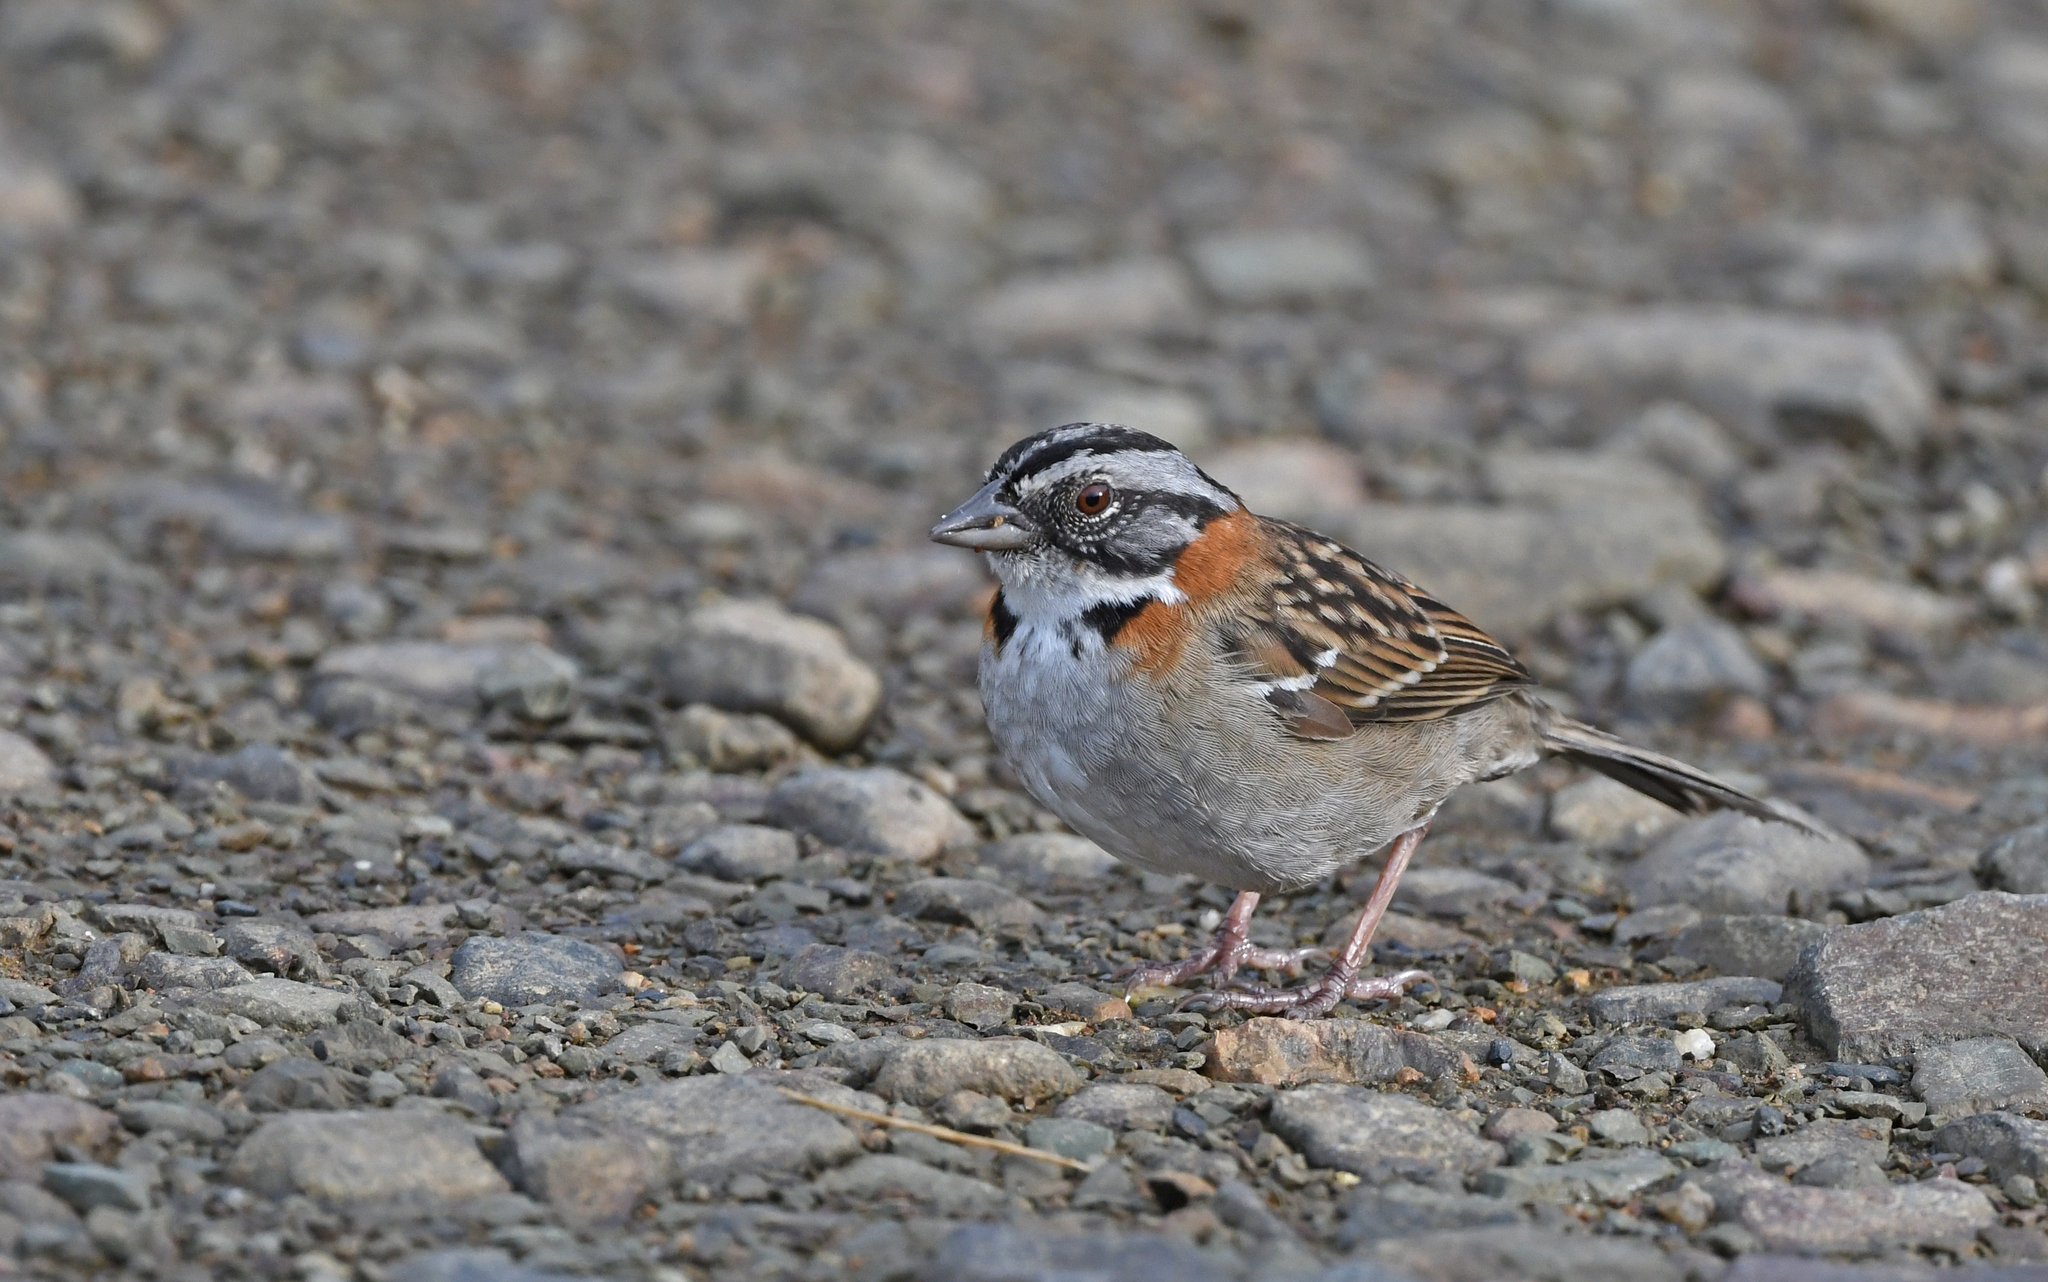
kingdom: Animalia
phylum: Chordata
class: Aves
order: Passeriformes
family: Passerellidae
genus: Zonotrichia
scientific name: Zonotrichia capensis
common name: Rufous-collared sparrow
